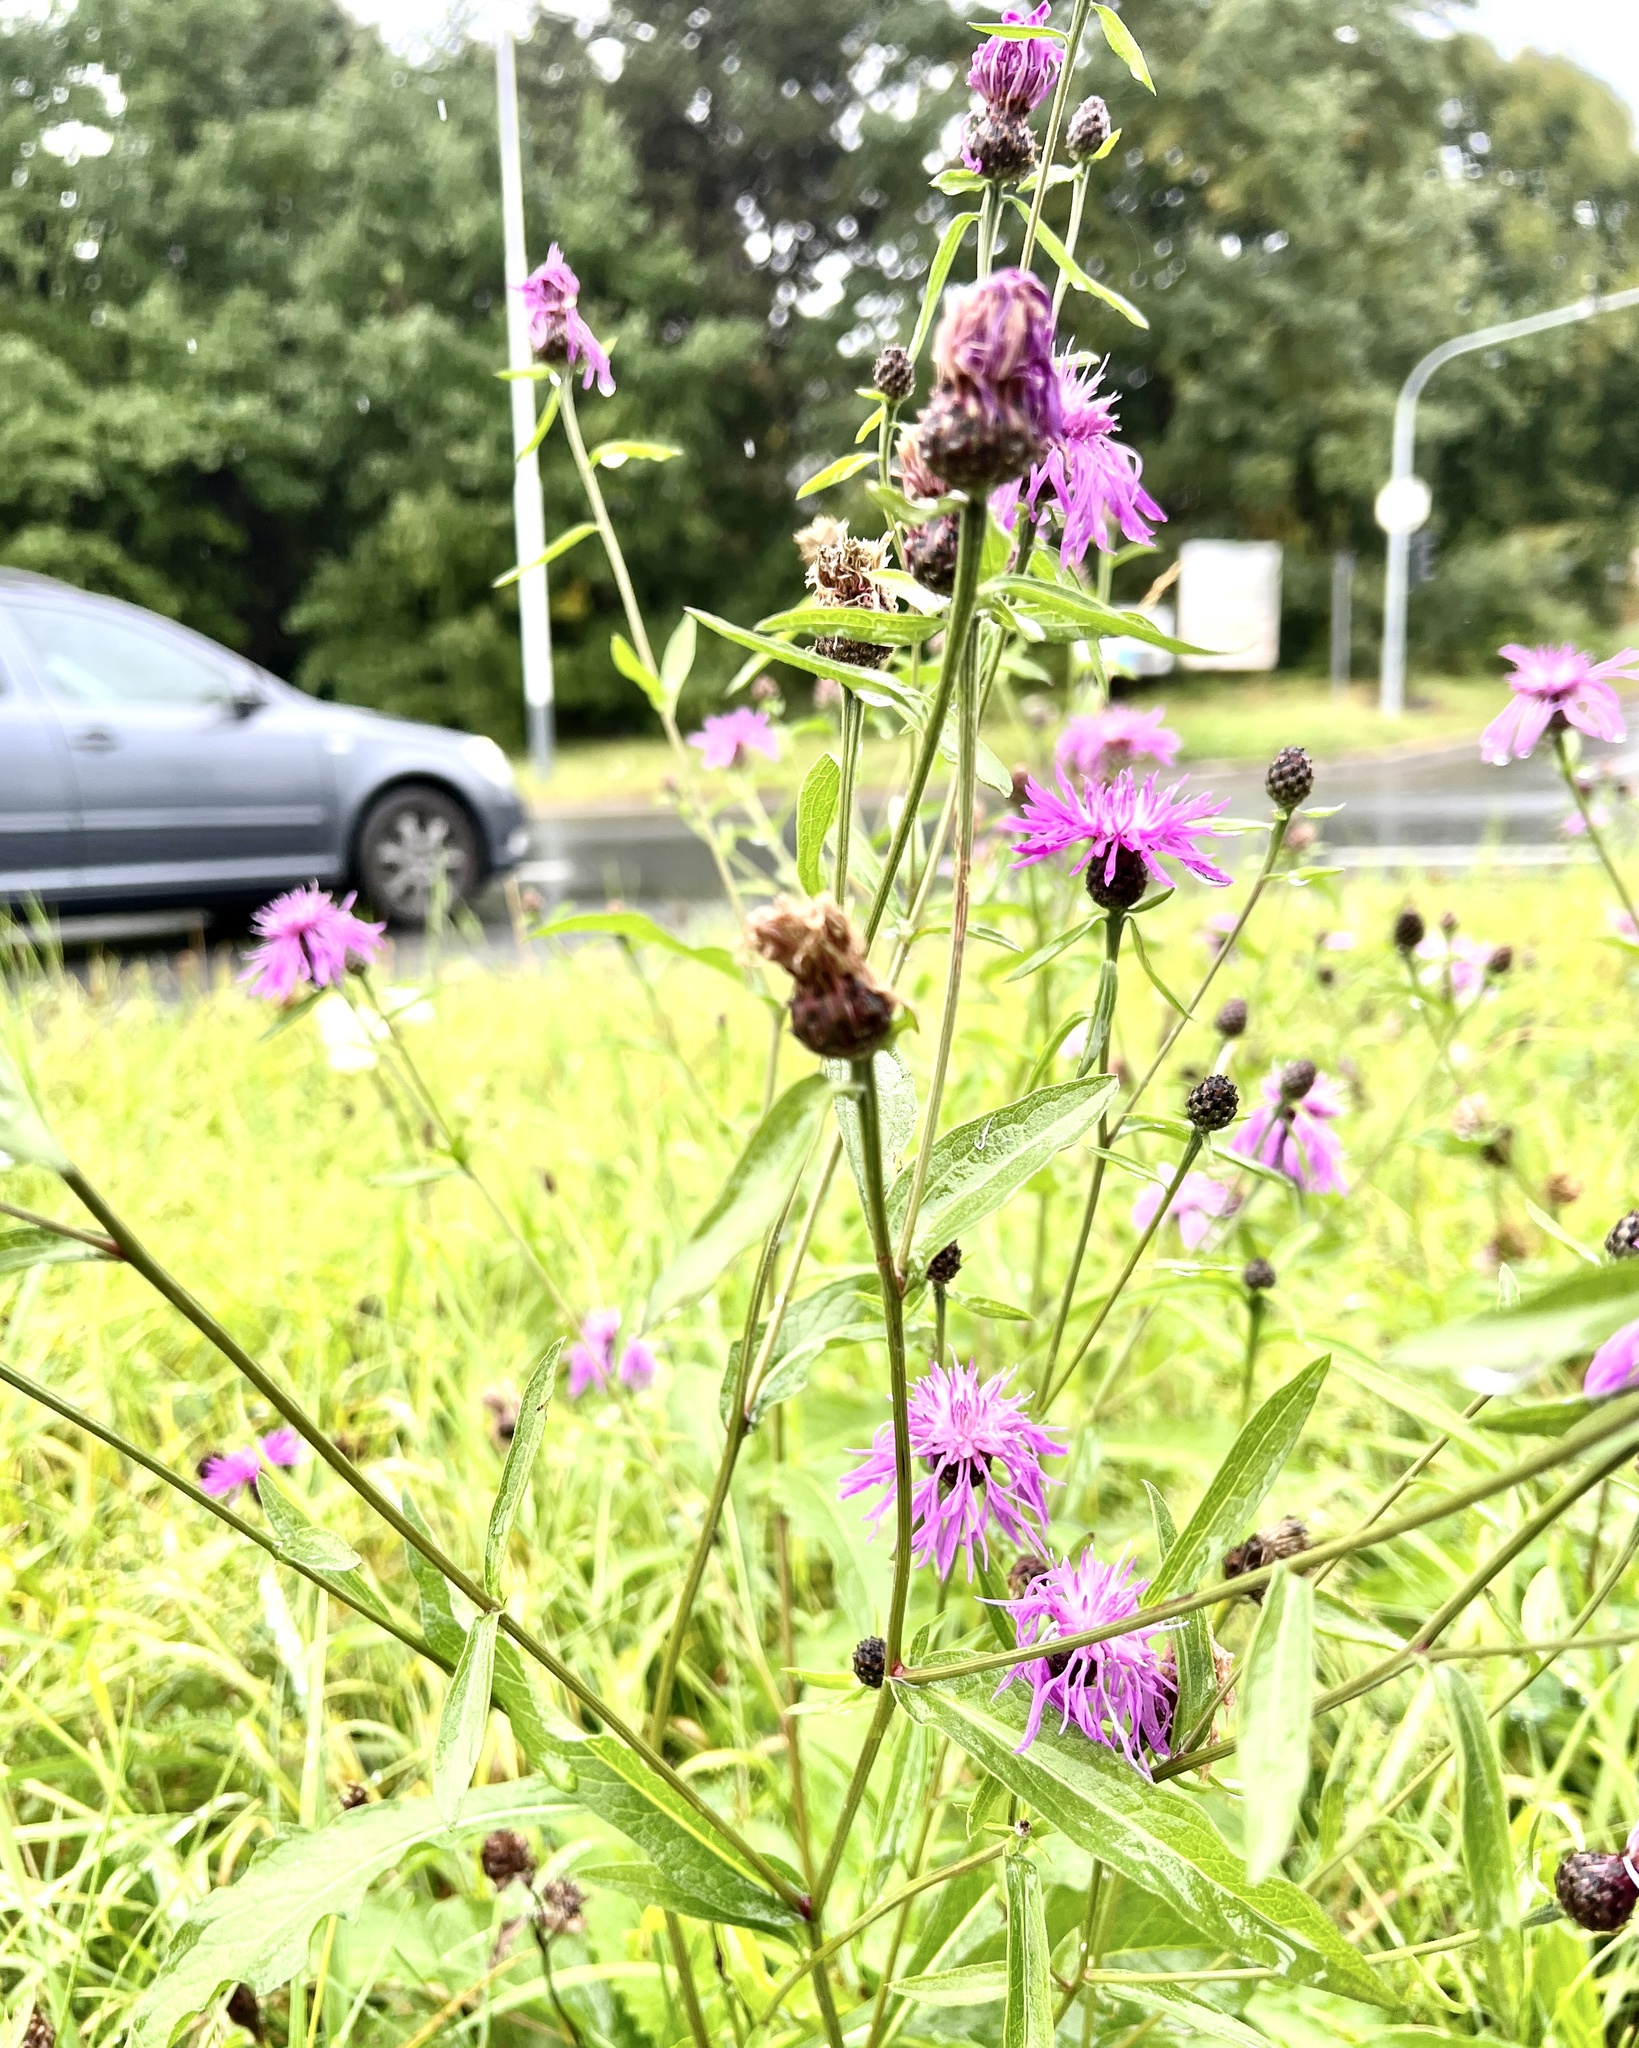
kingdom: Plantae
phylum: Tracheophyta
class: Magnoliopsida
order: Asterales
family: Asteraceae
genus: Centaurea
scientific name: Centaurea erdneri
